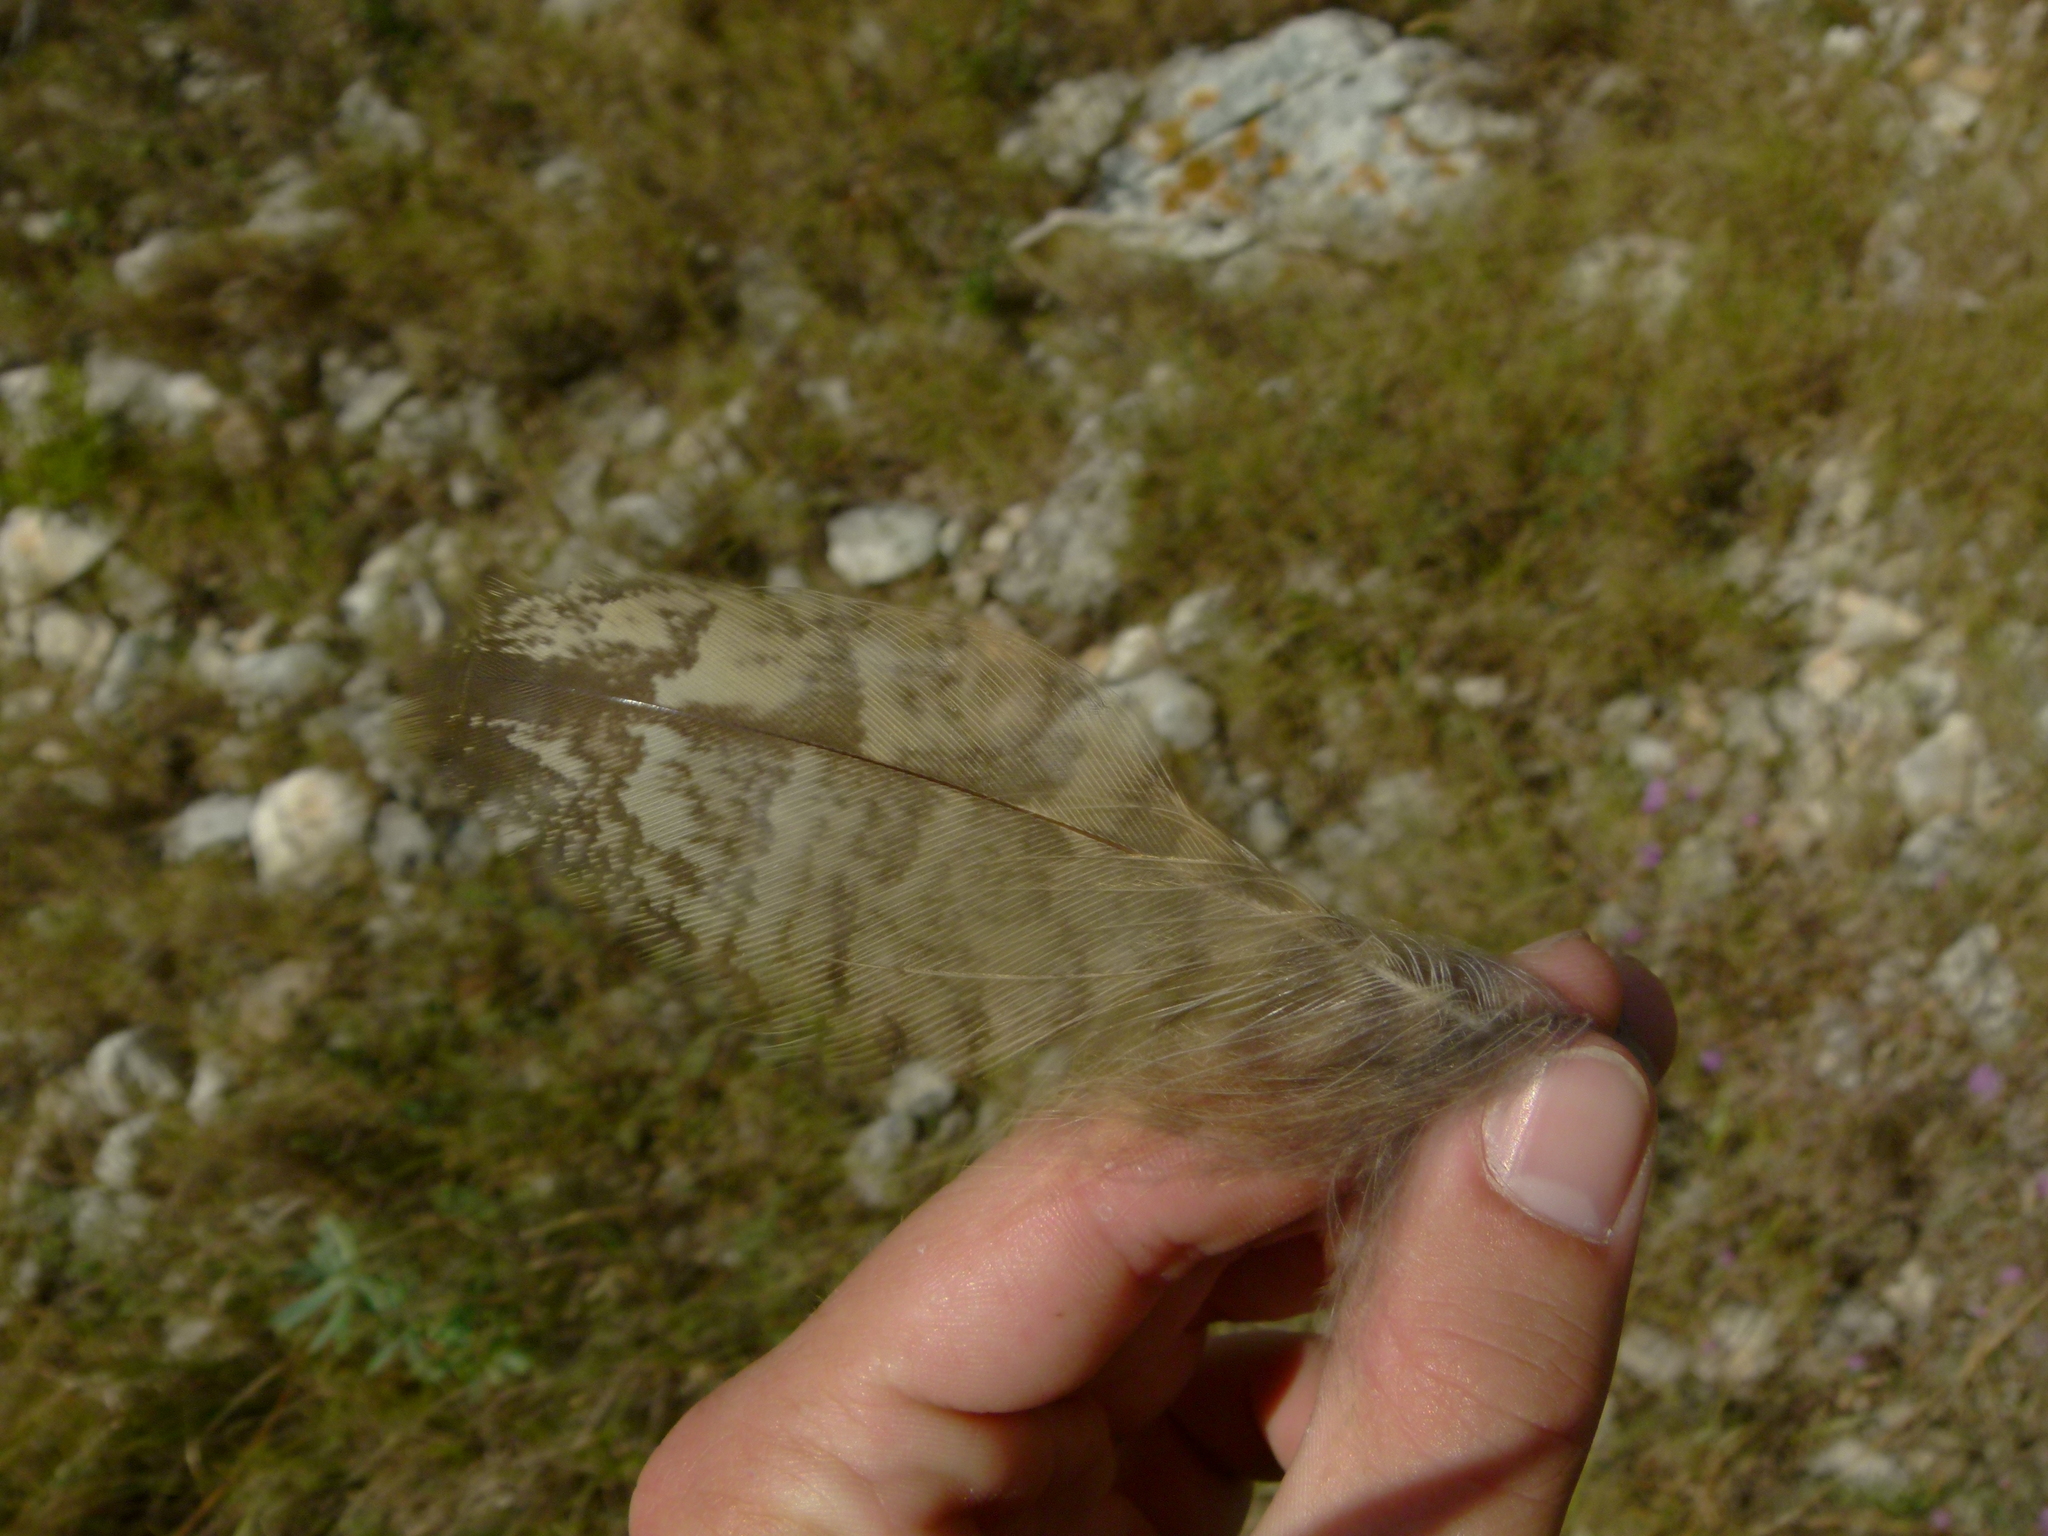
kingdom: Animalia
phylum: Chordata
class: Aves
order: Strigiformes
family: Strigidae
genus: Bubo
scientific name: Bubo bubo
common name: Eurasian eagle-owl
